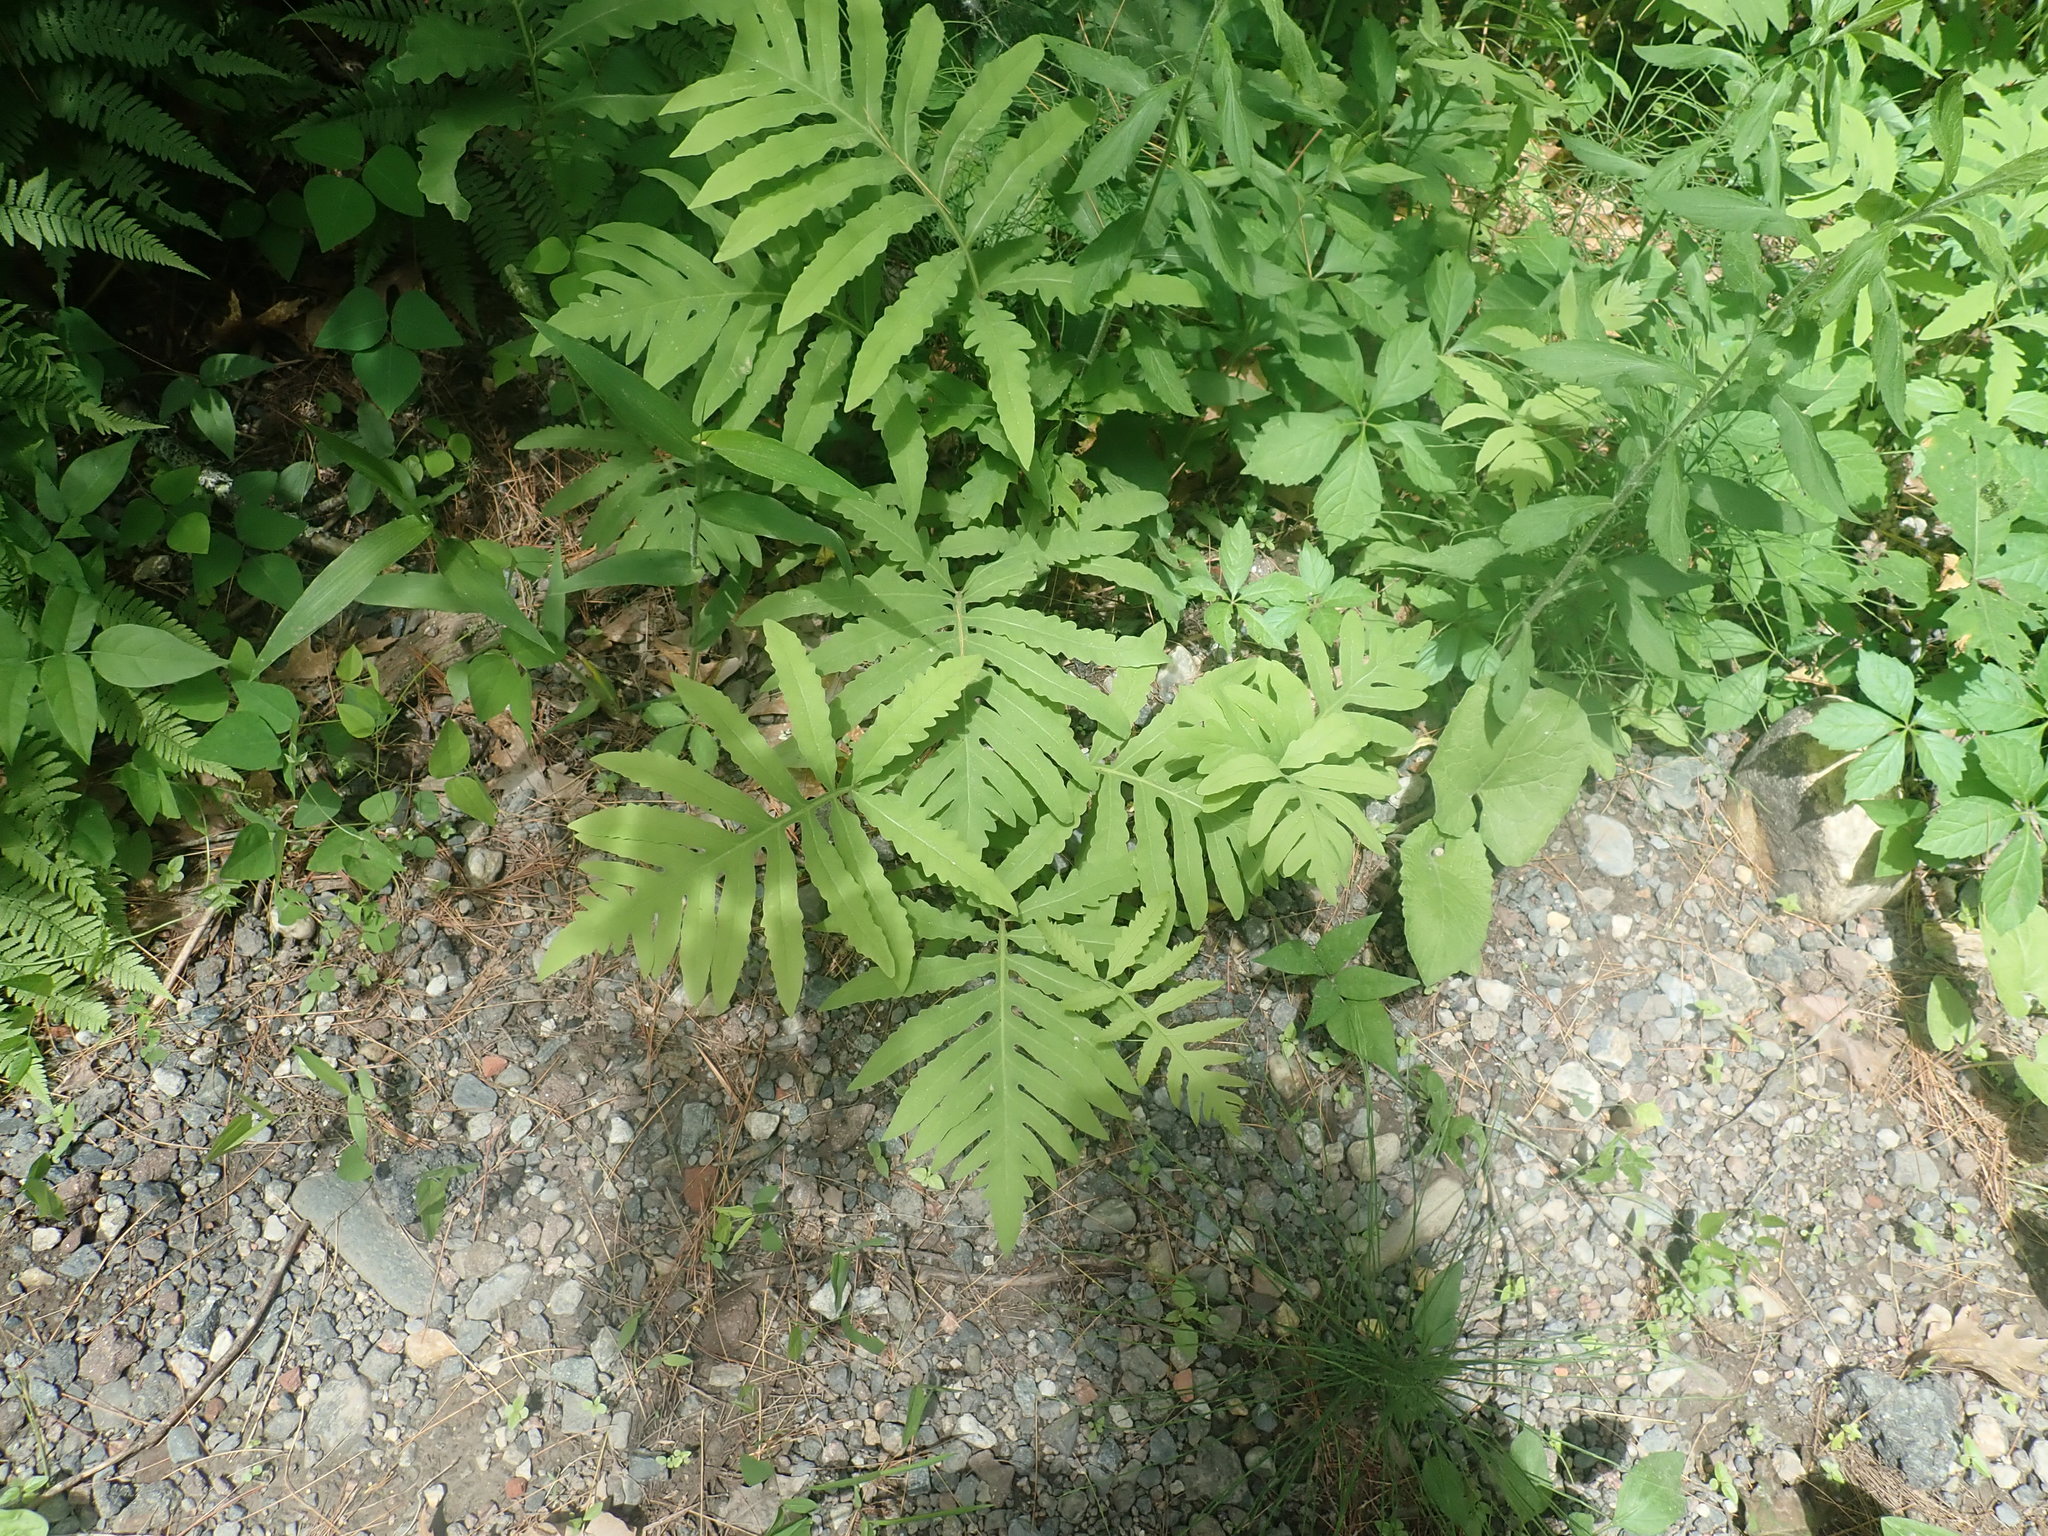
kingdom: Plantae
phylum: Tracheophyta
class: Polypodiopsida
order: Polypodiales
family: Onocleaceae
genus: Onoclea
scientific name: Onoclea sensibilis
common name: Sensitive fern
